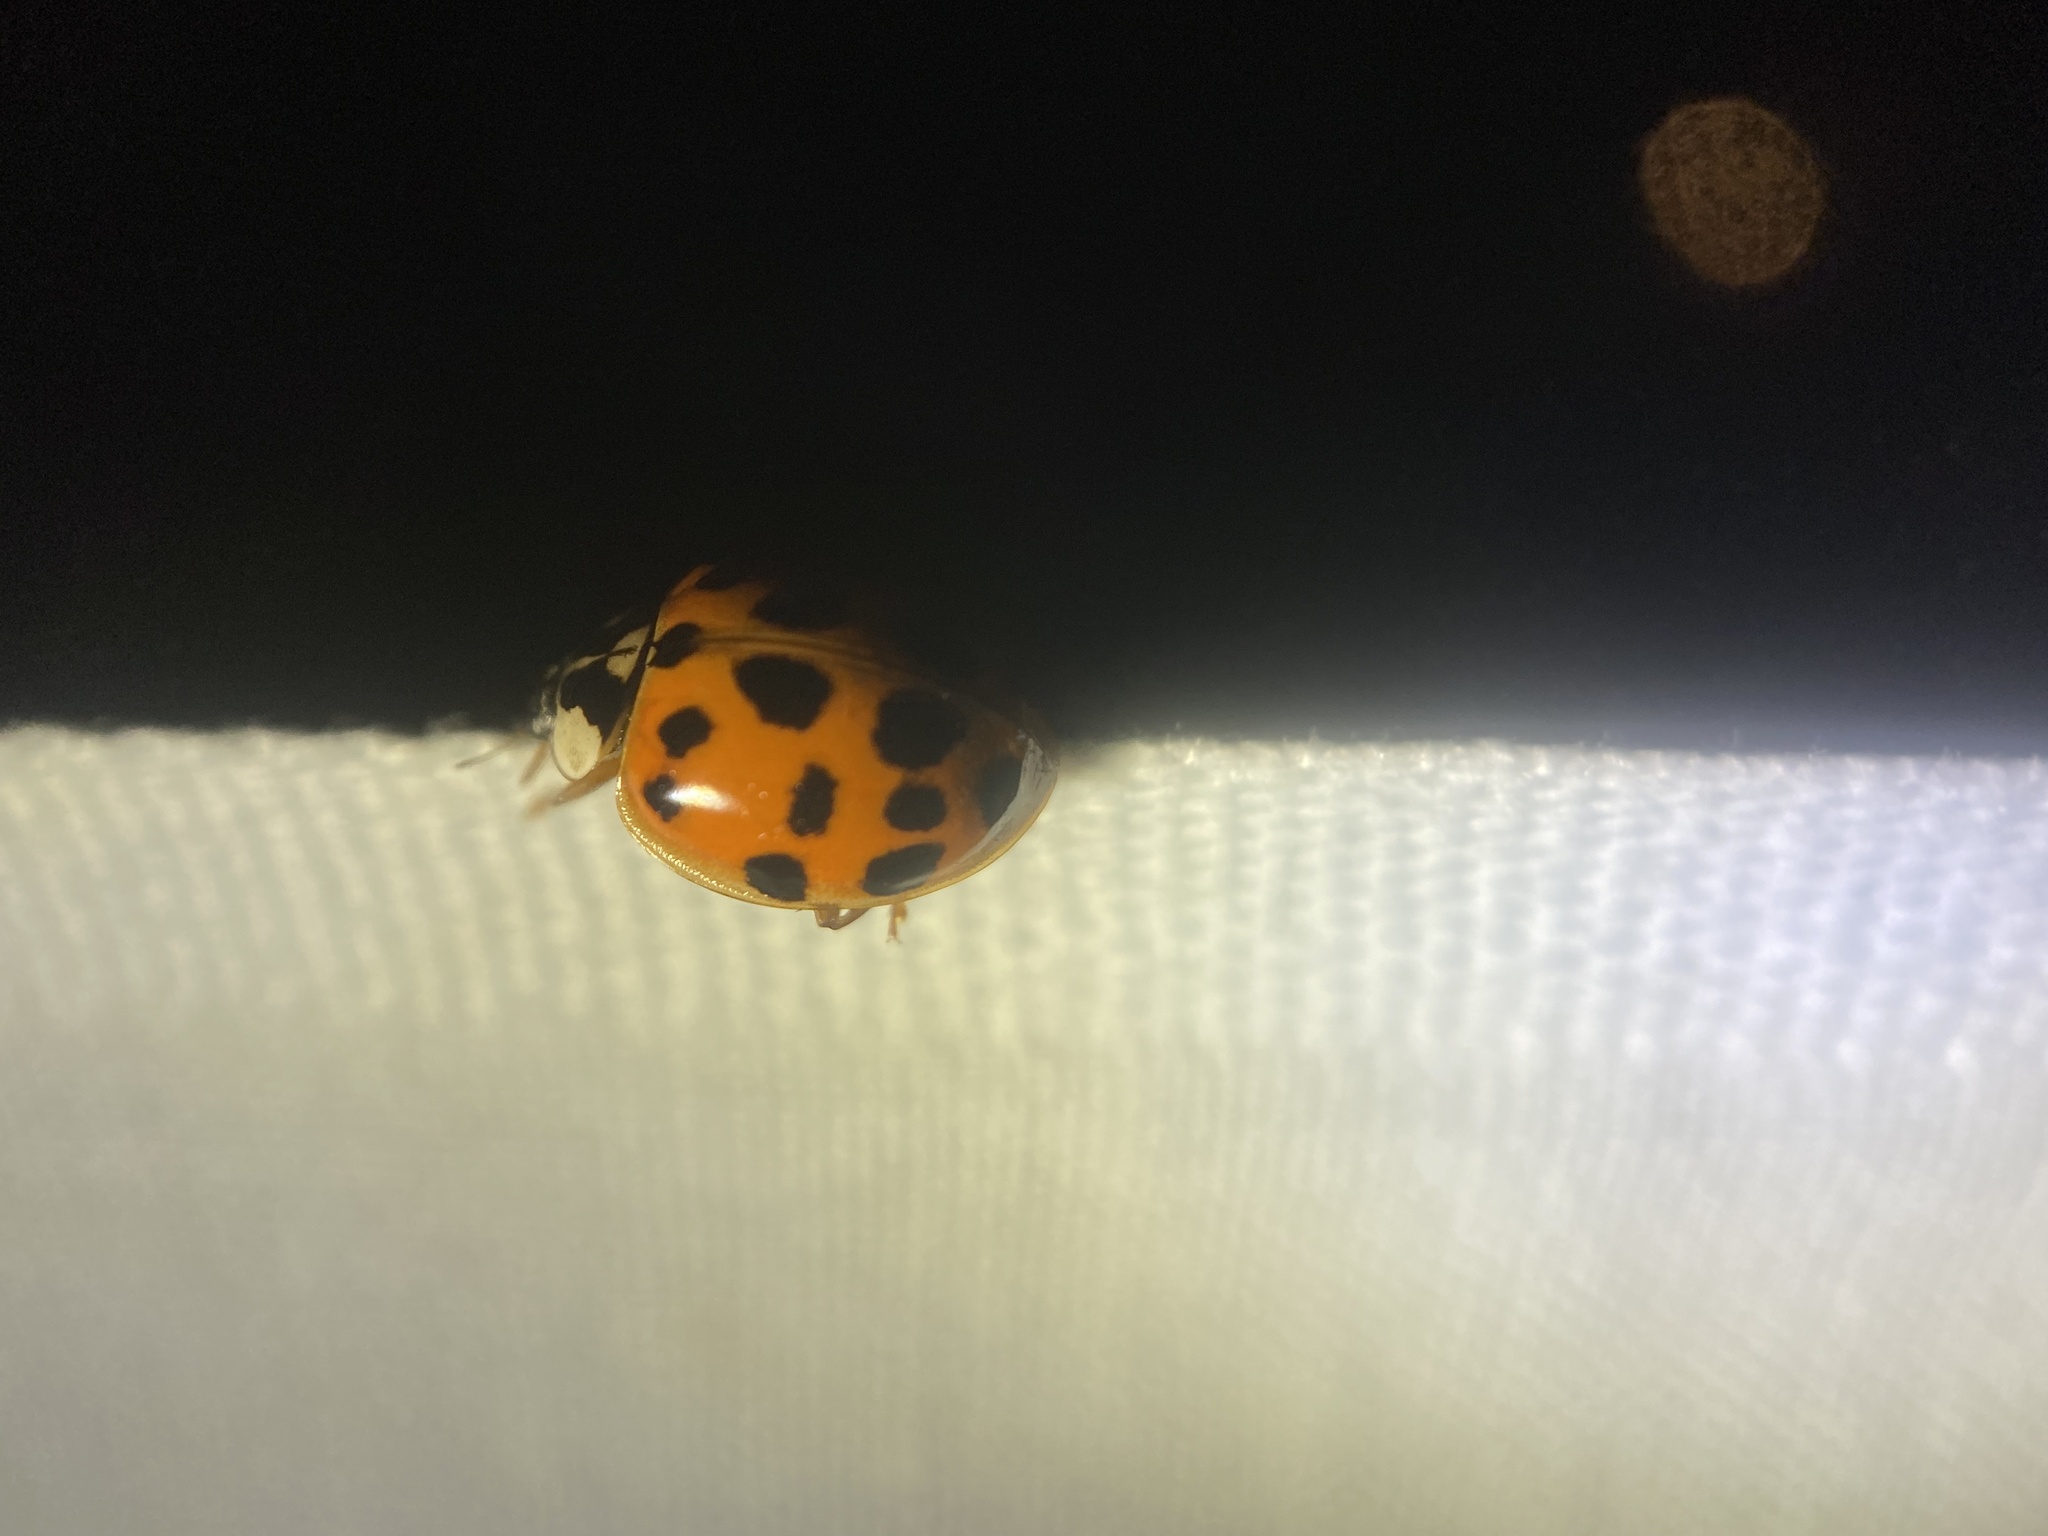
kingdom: Animalia
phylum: Arthropoda
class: Insecta
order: Coleoptera
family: Coccinellidae
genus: Harmonia
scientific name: Harmonia axyridis
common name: Harlequin ladybird
